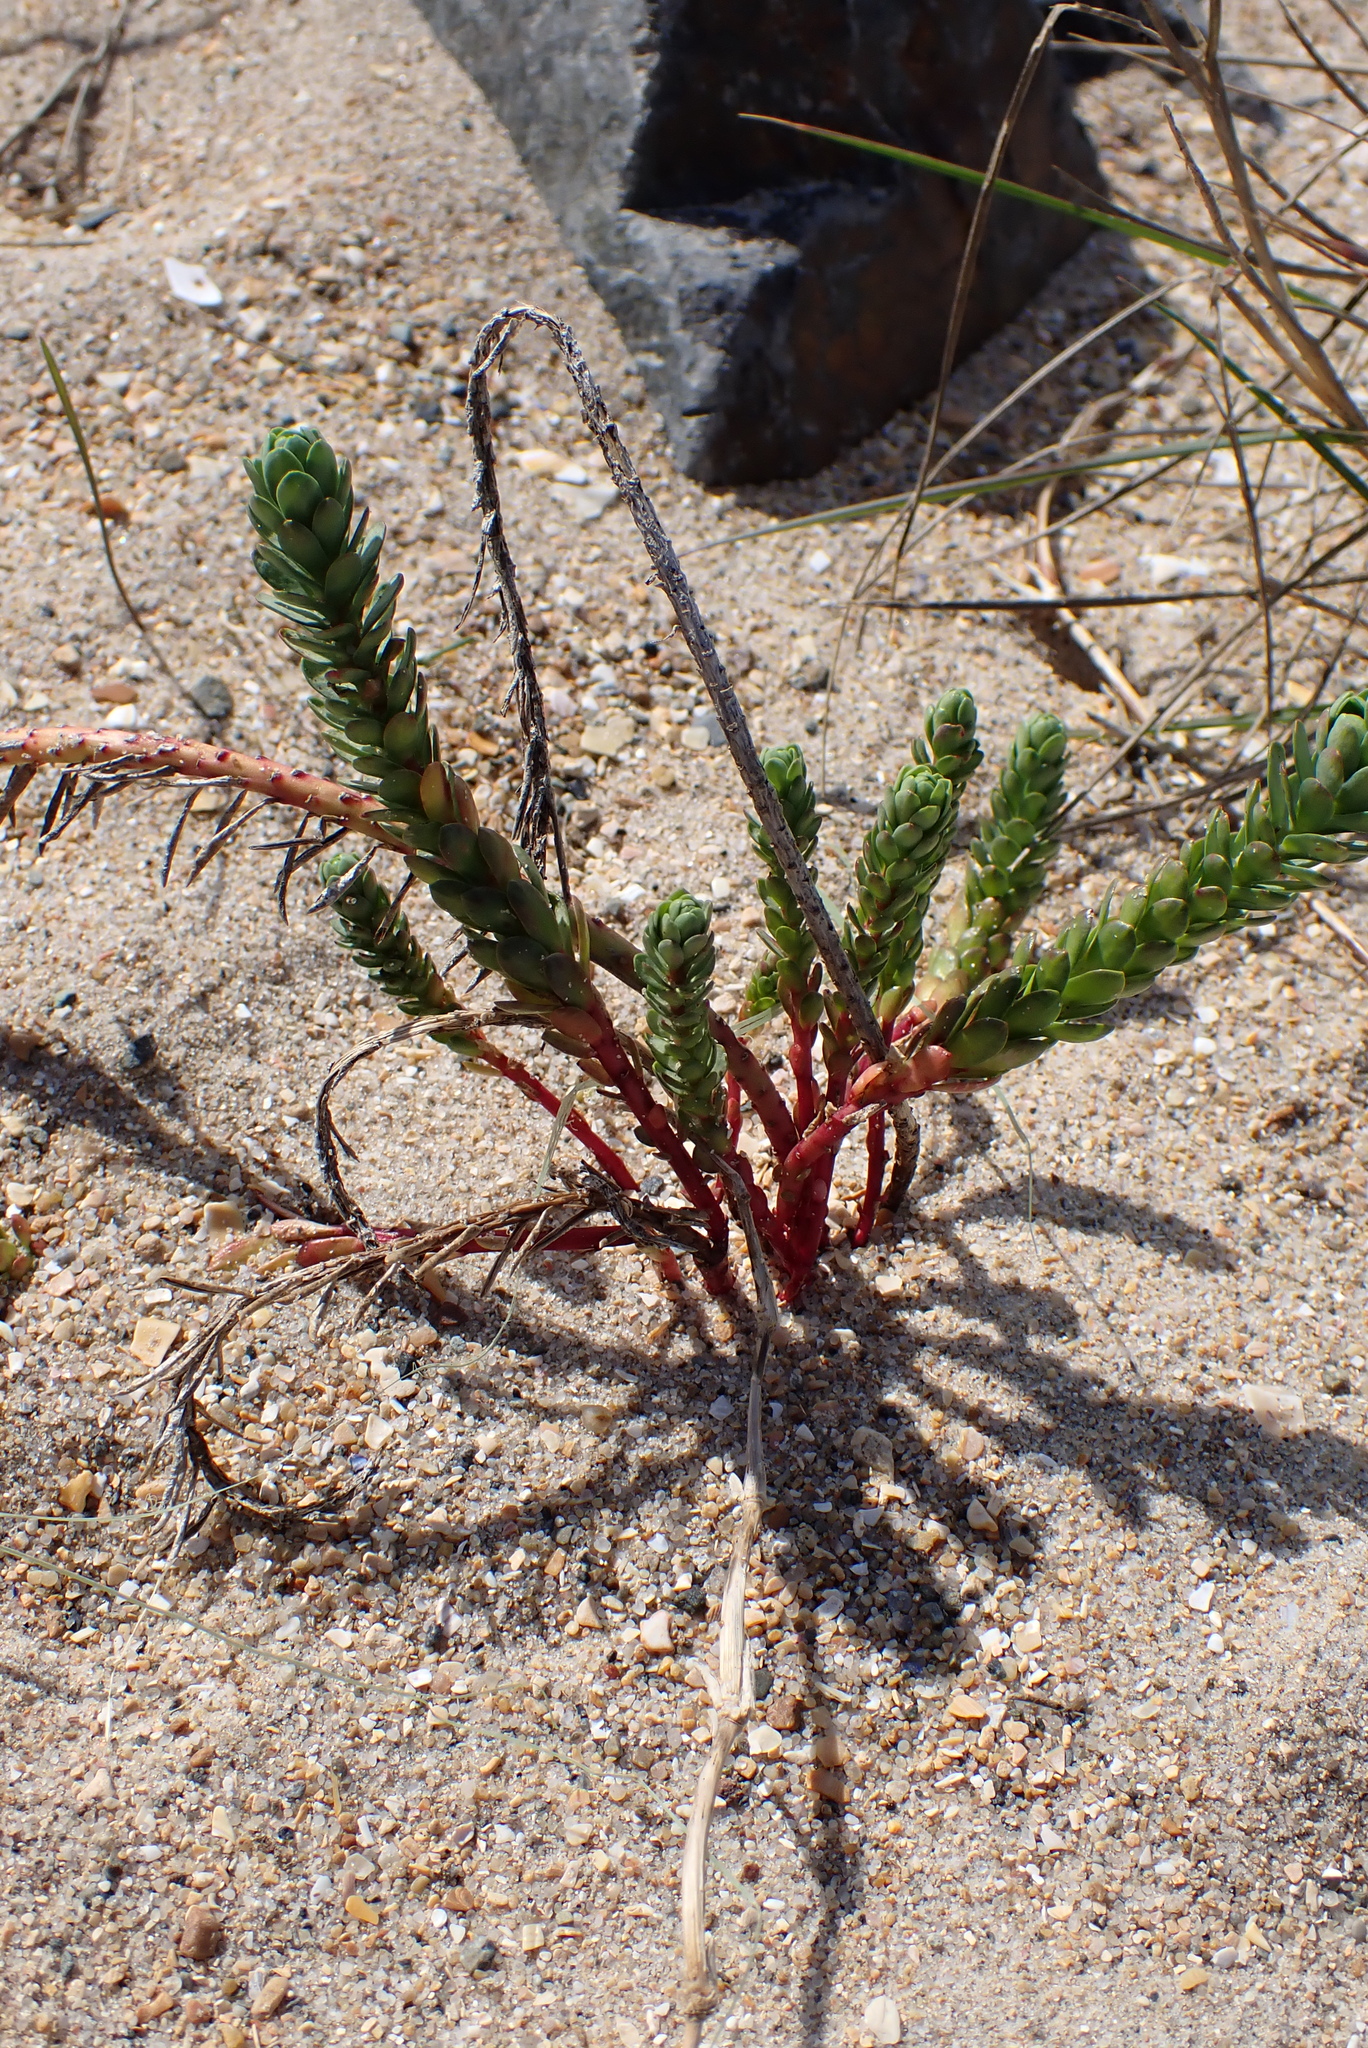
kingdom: Plantae
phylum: Tracheophyta
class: Magnoliopsida
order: Malpighiales
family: Euphorbiaceae
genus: Euphorbia
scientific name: Euphorbia paralias
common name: Sea spurge
